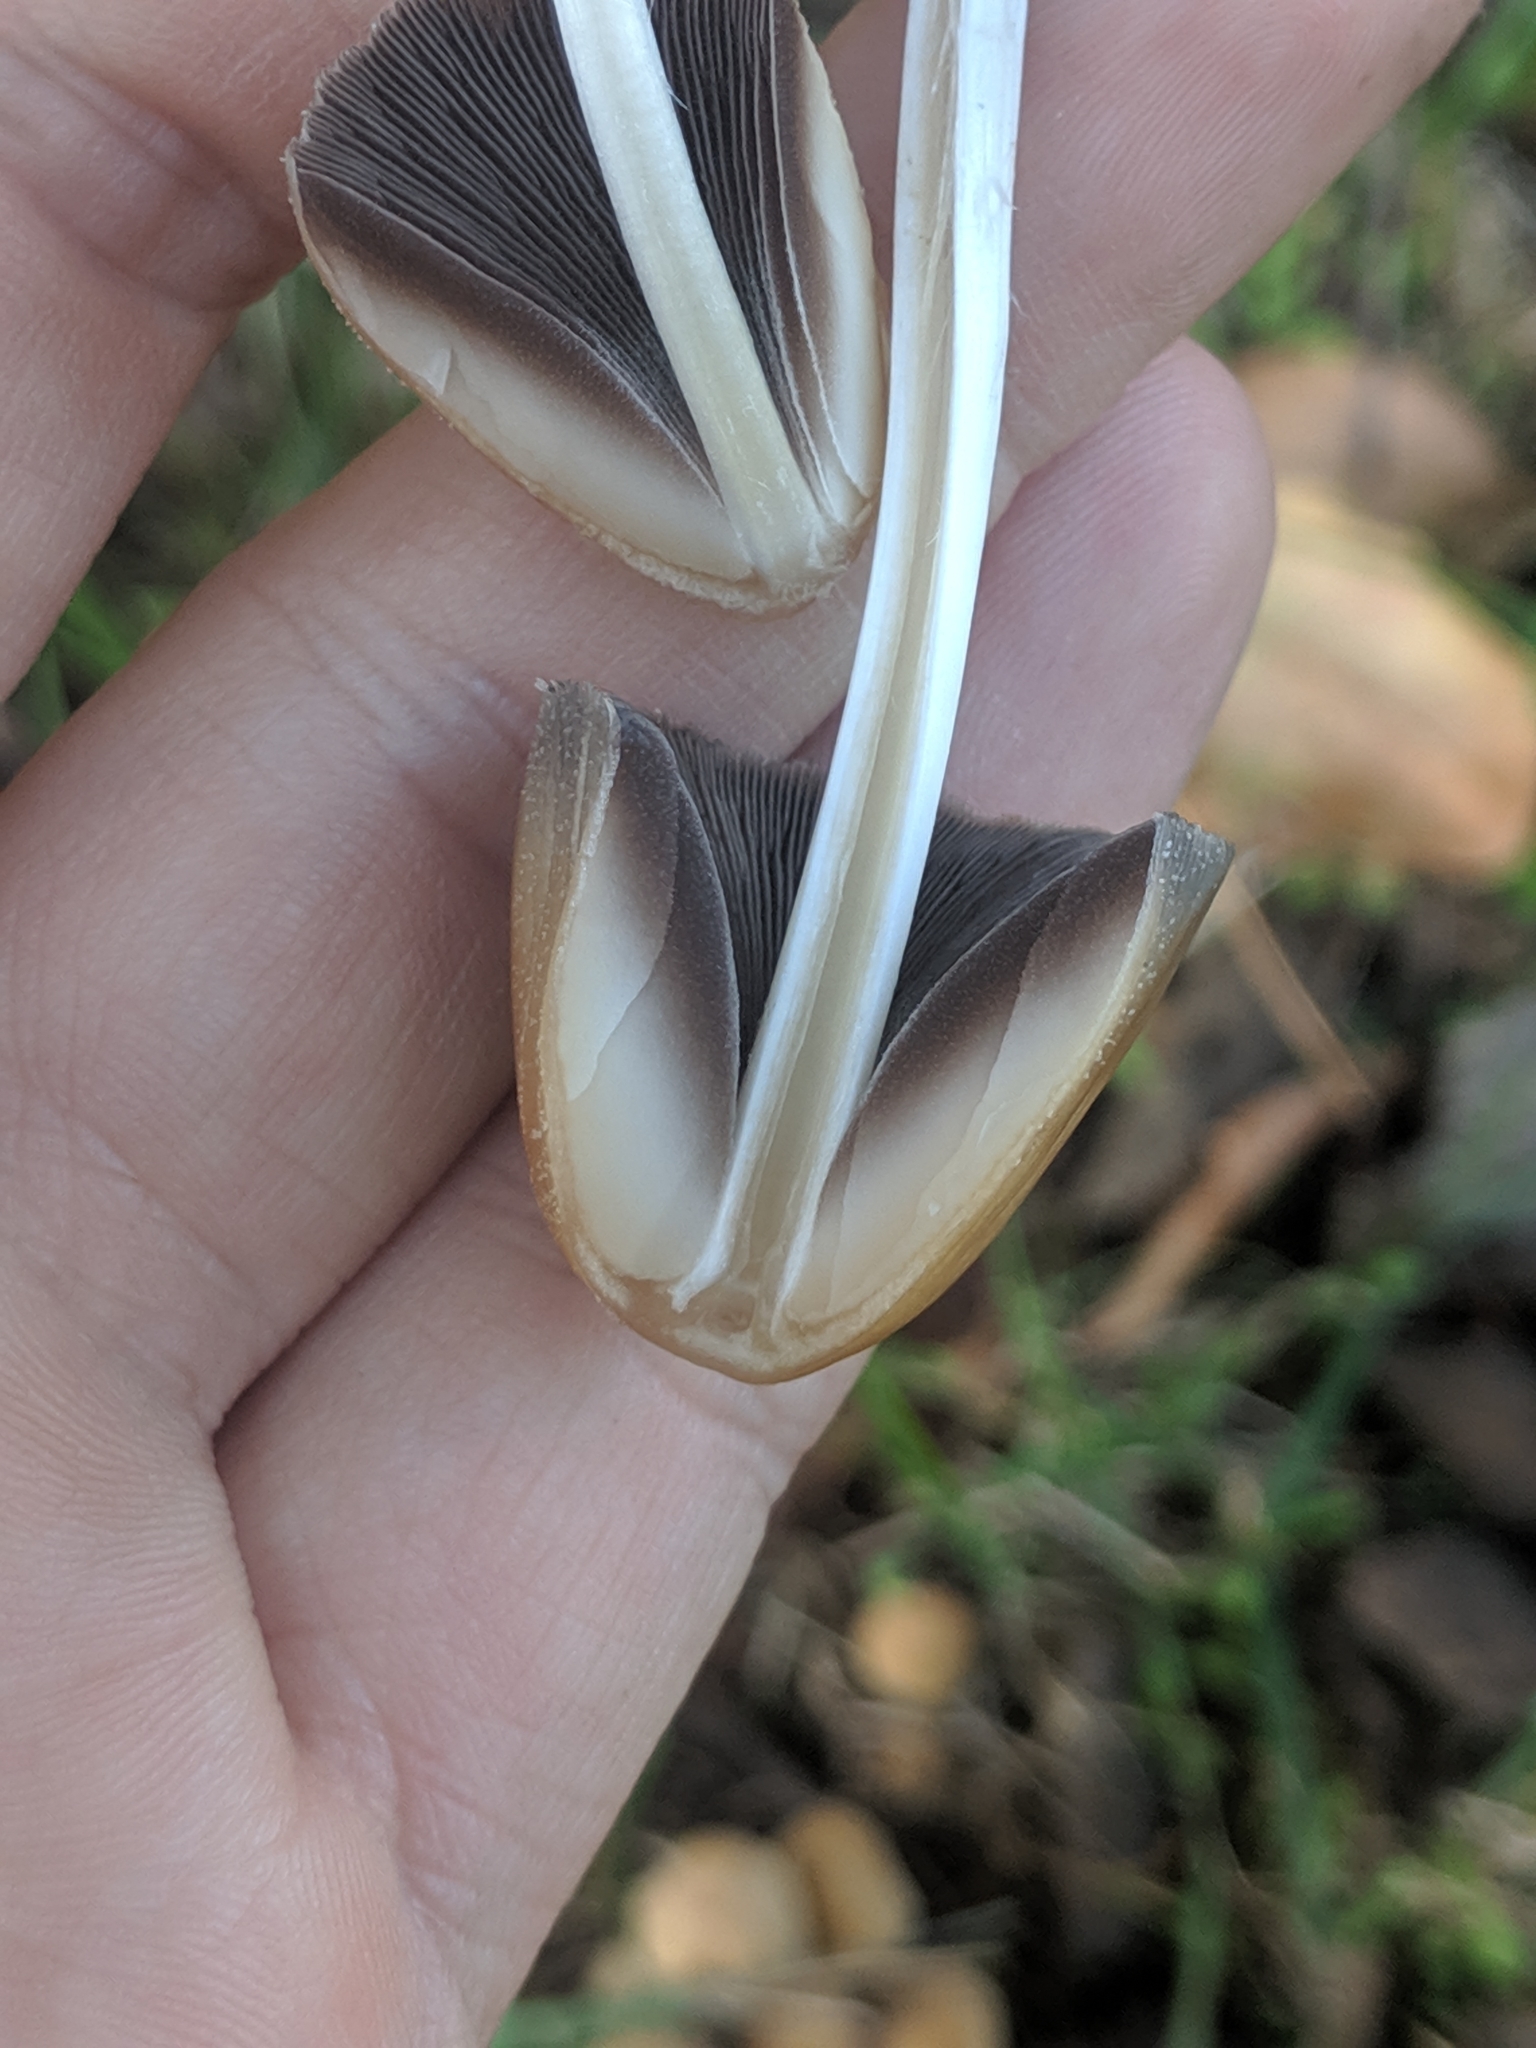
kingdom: Fungi
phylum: Basidiomycota
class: Agaricomycetes
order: Agaricales
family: Psathyrellaceae
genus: Coprinellus
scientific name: Coprinellus micaceus
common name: Glistening ink-cap
